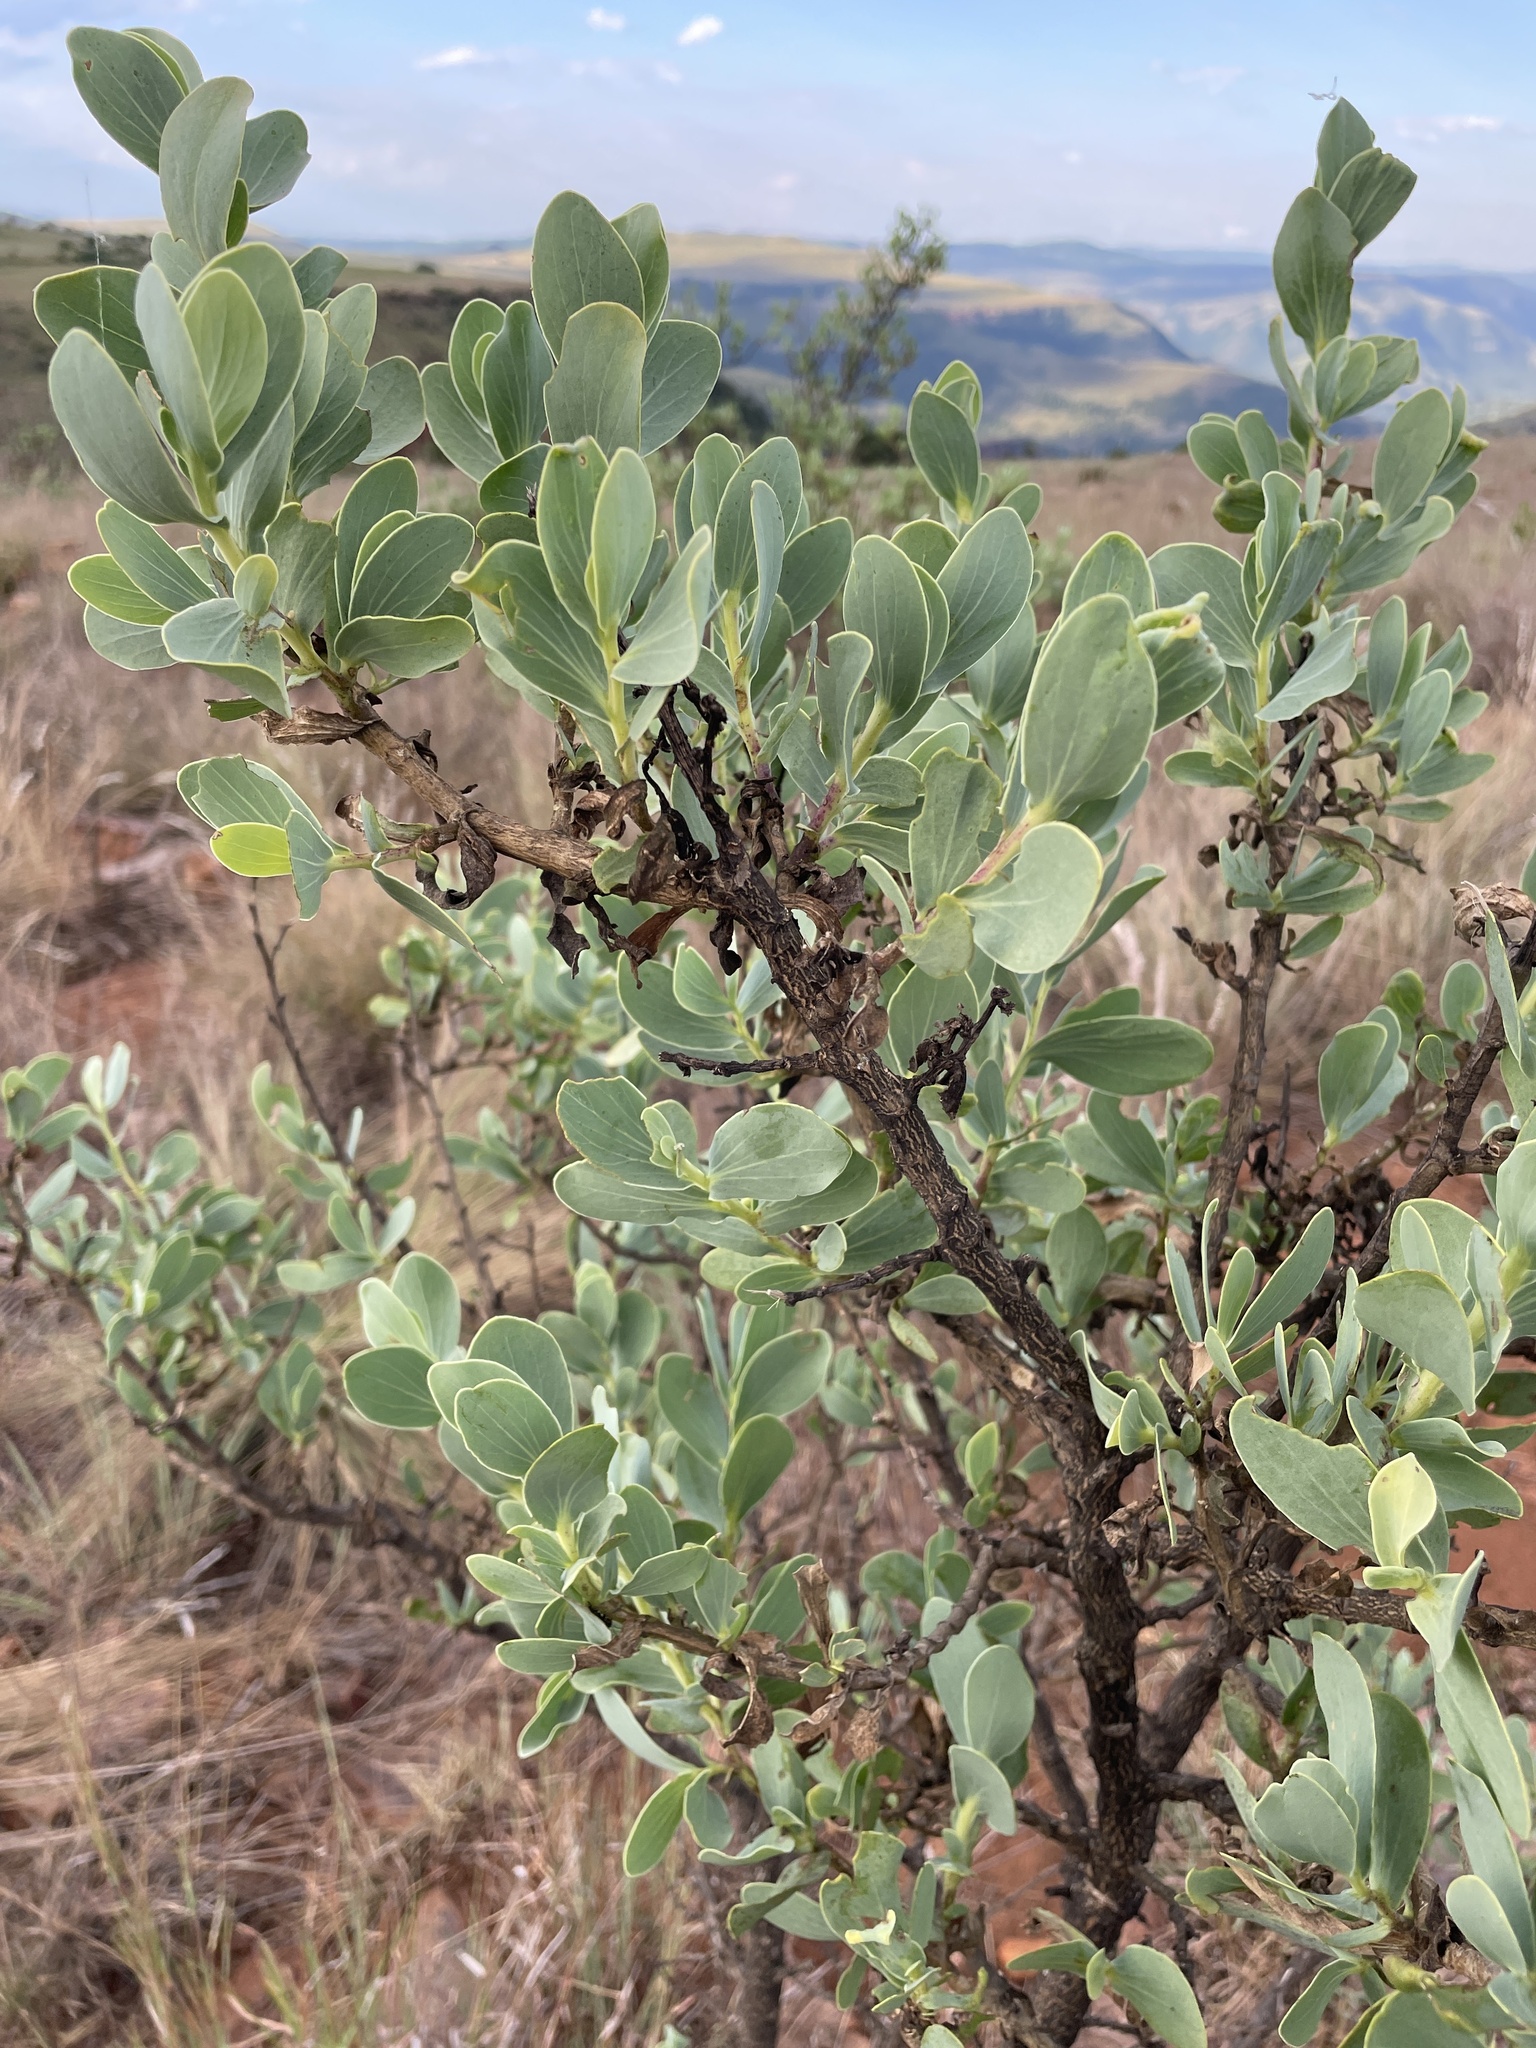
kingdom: Plantae
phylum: Tracheophyta
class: Magnoliopsida
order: Asterales
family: Asteraceae
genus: Lopholaena
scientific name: Lopholaena coriifolia
